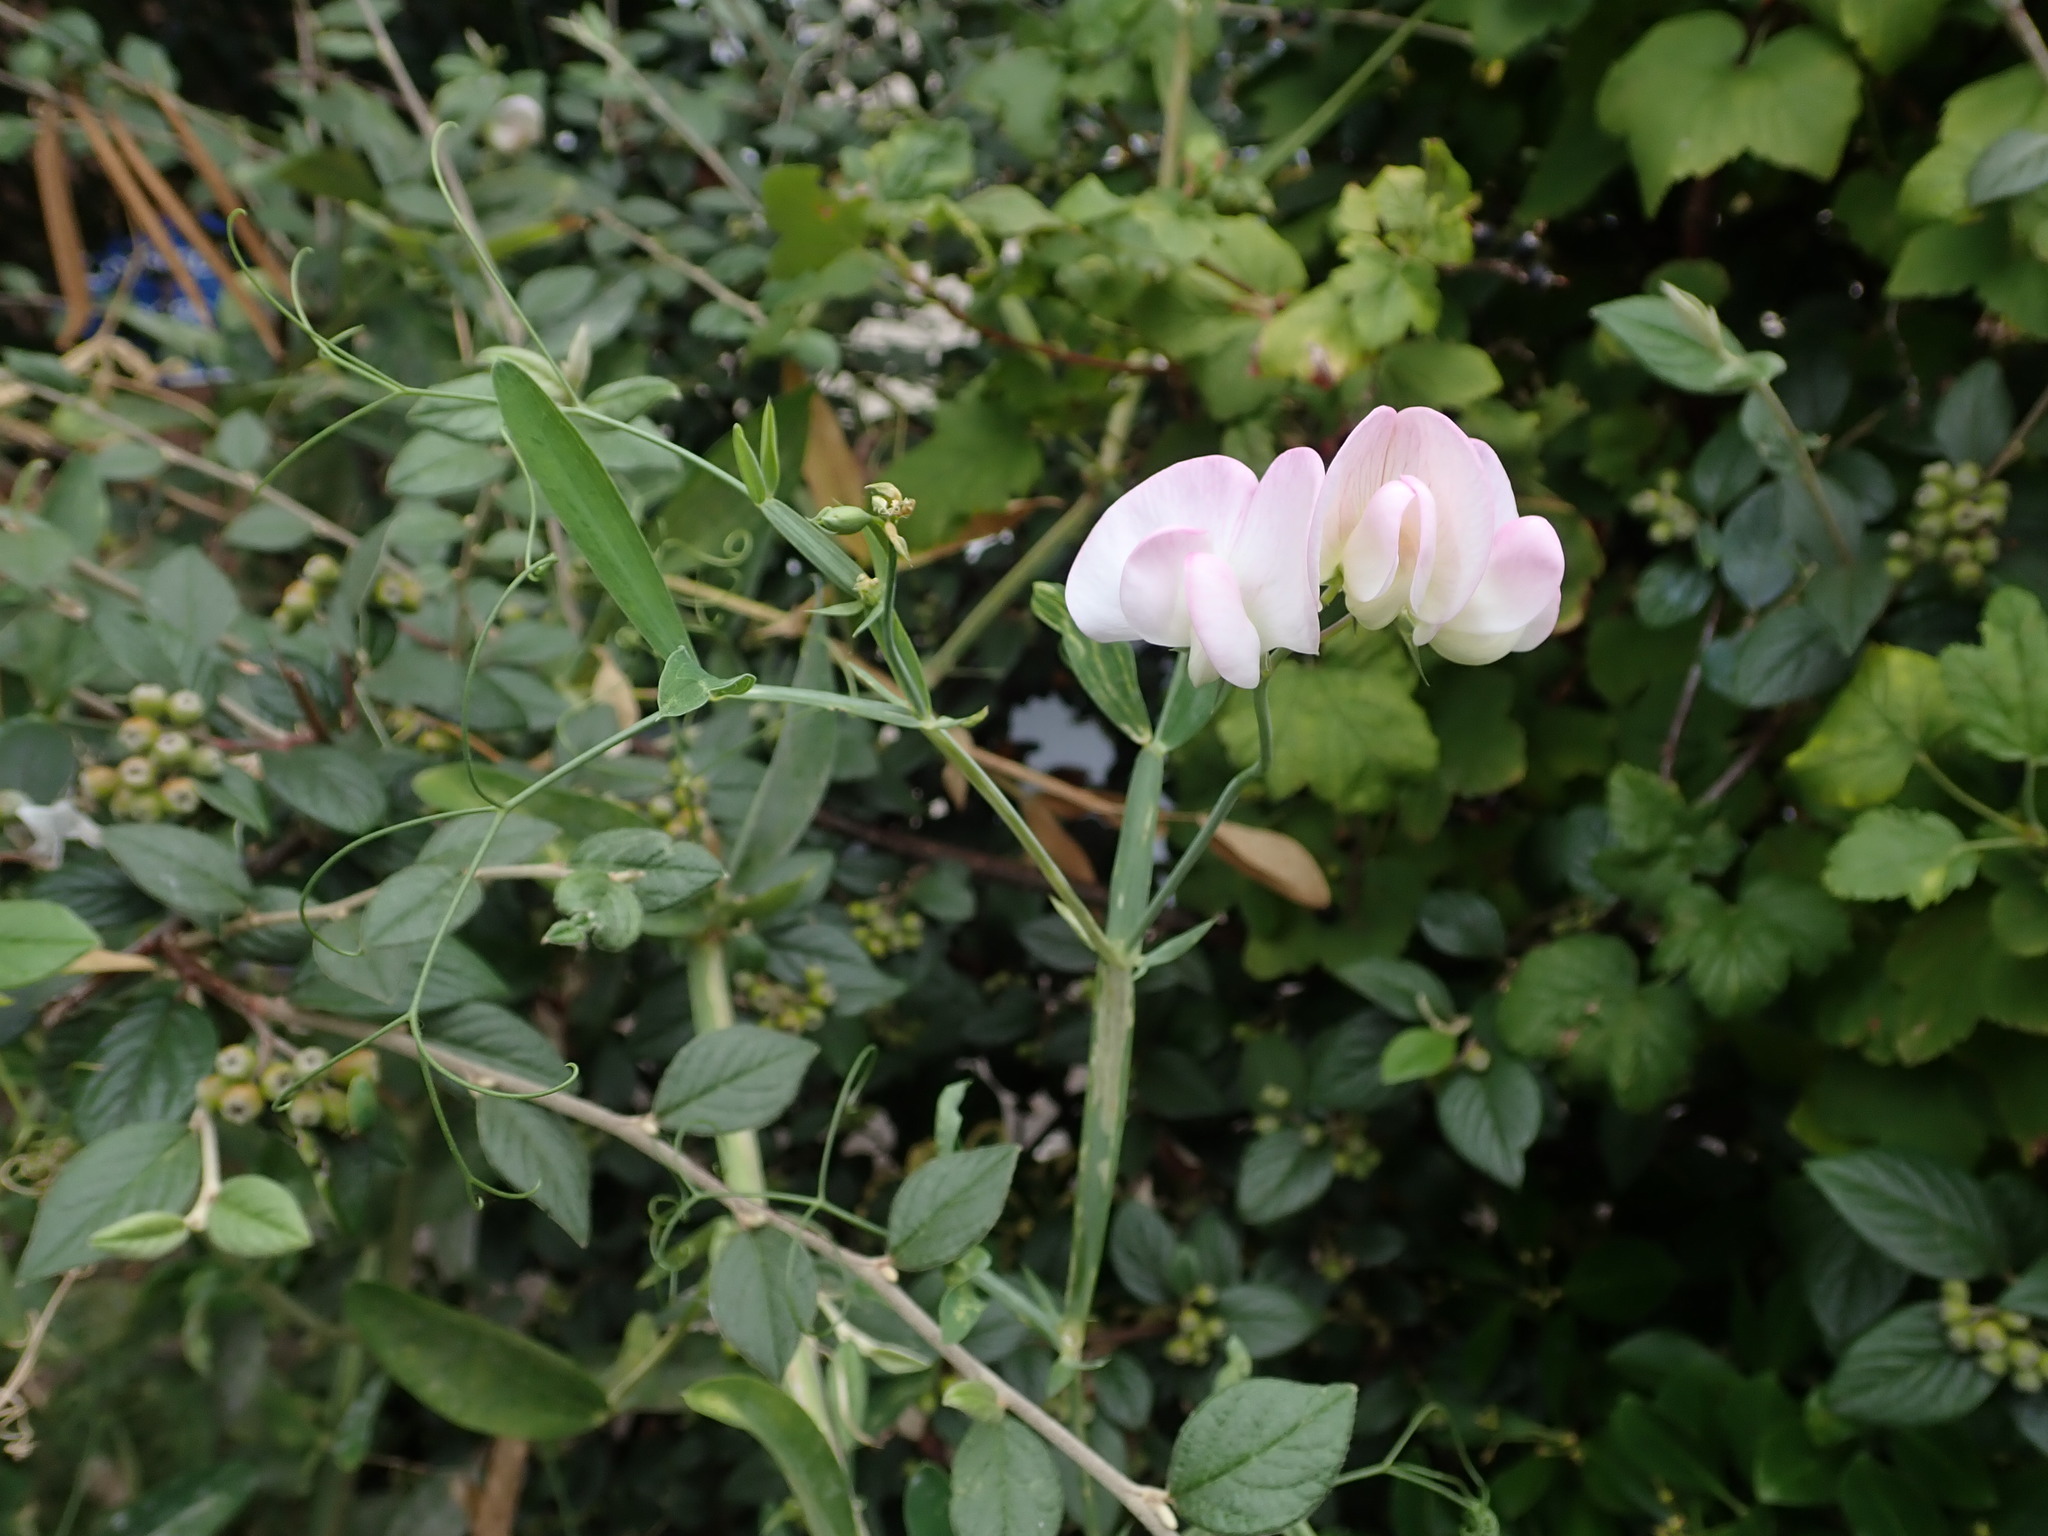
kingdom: Plantae
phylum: Tracheophyta
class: Magnoliopsida
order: Fabales
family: Fabaceae
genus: Lathyrus
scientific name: Lathyrus latifolius
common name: Perennial pea
